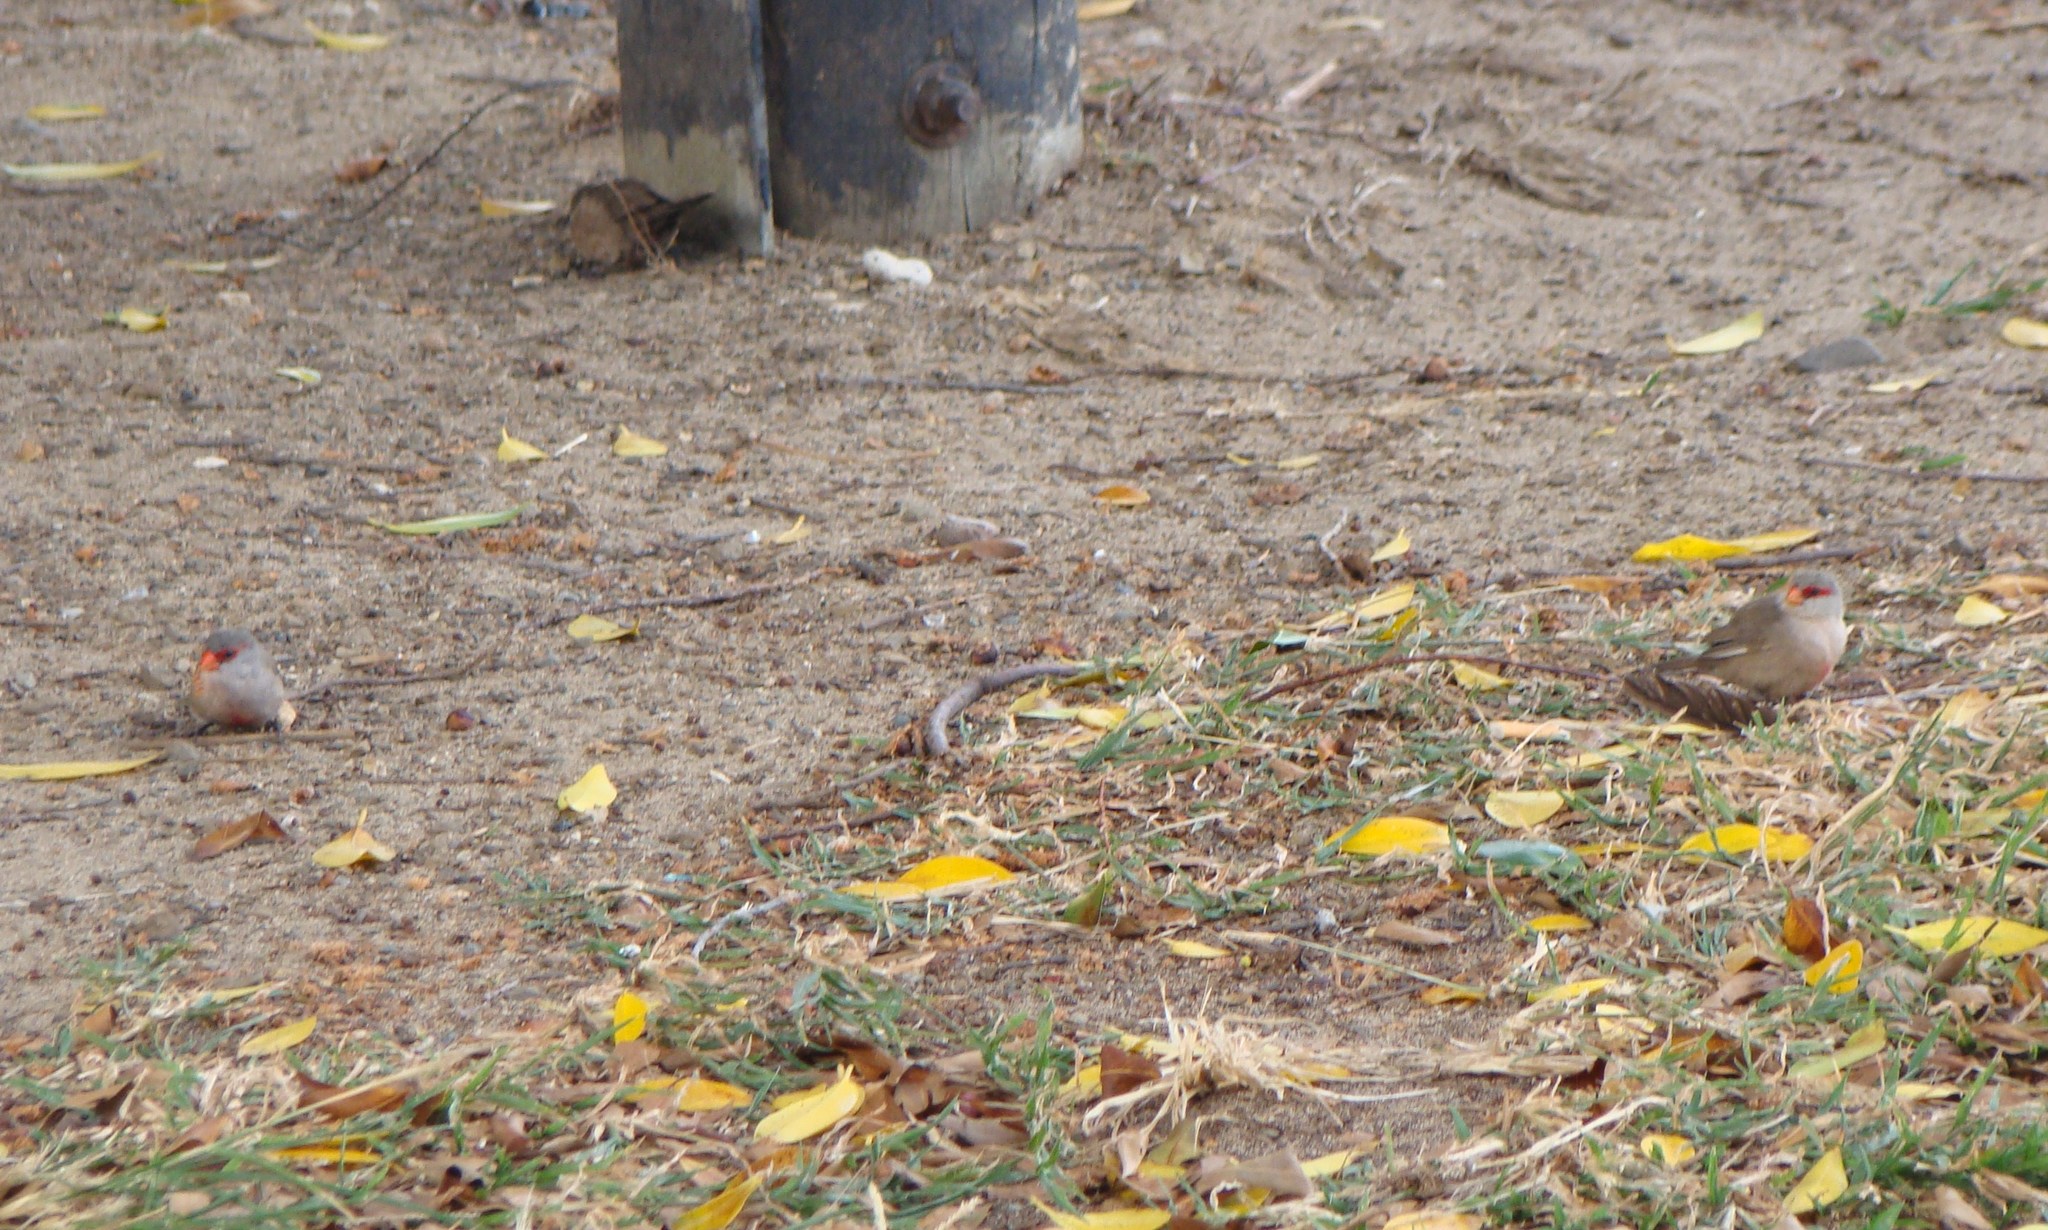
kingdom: Animalia
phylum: Chordata
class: Aves
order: Passeriformes
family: Estrildidae
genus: Estrilda
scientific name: Estrilda astrild
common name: Common waxbill
